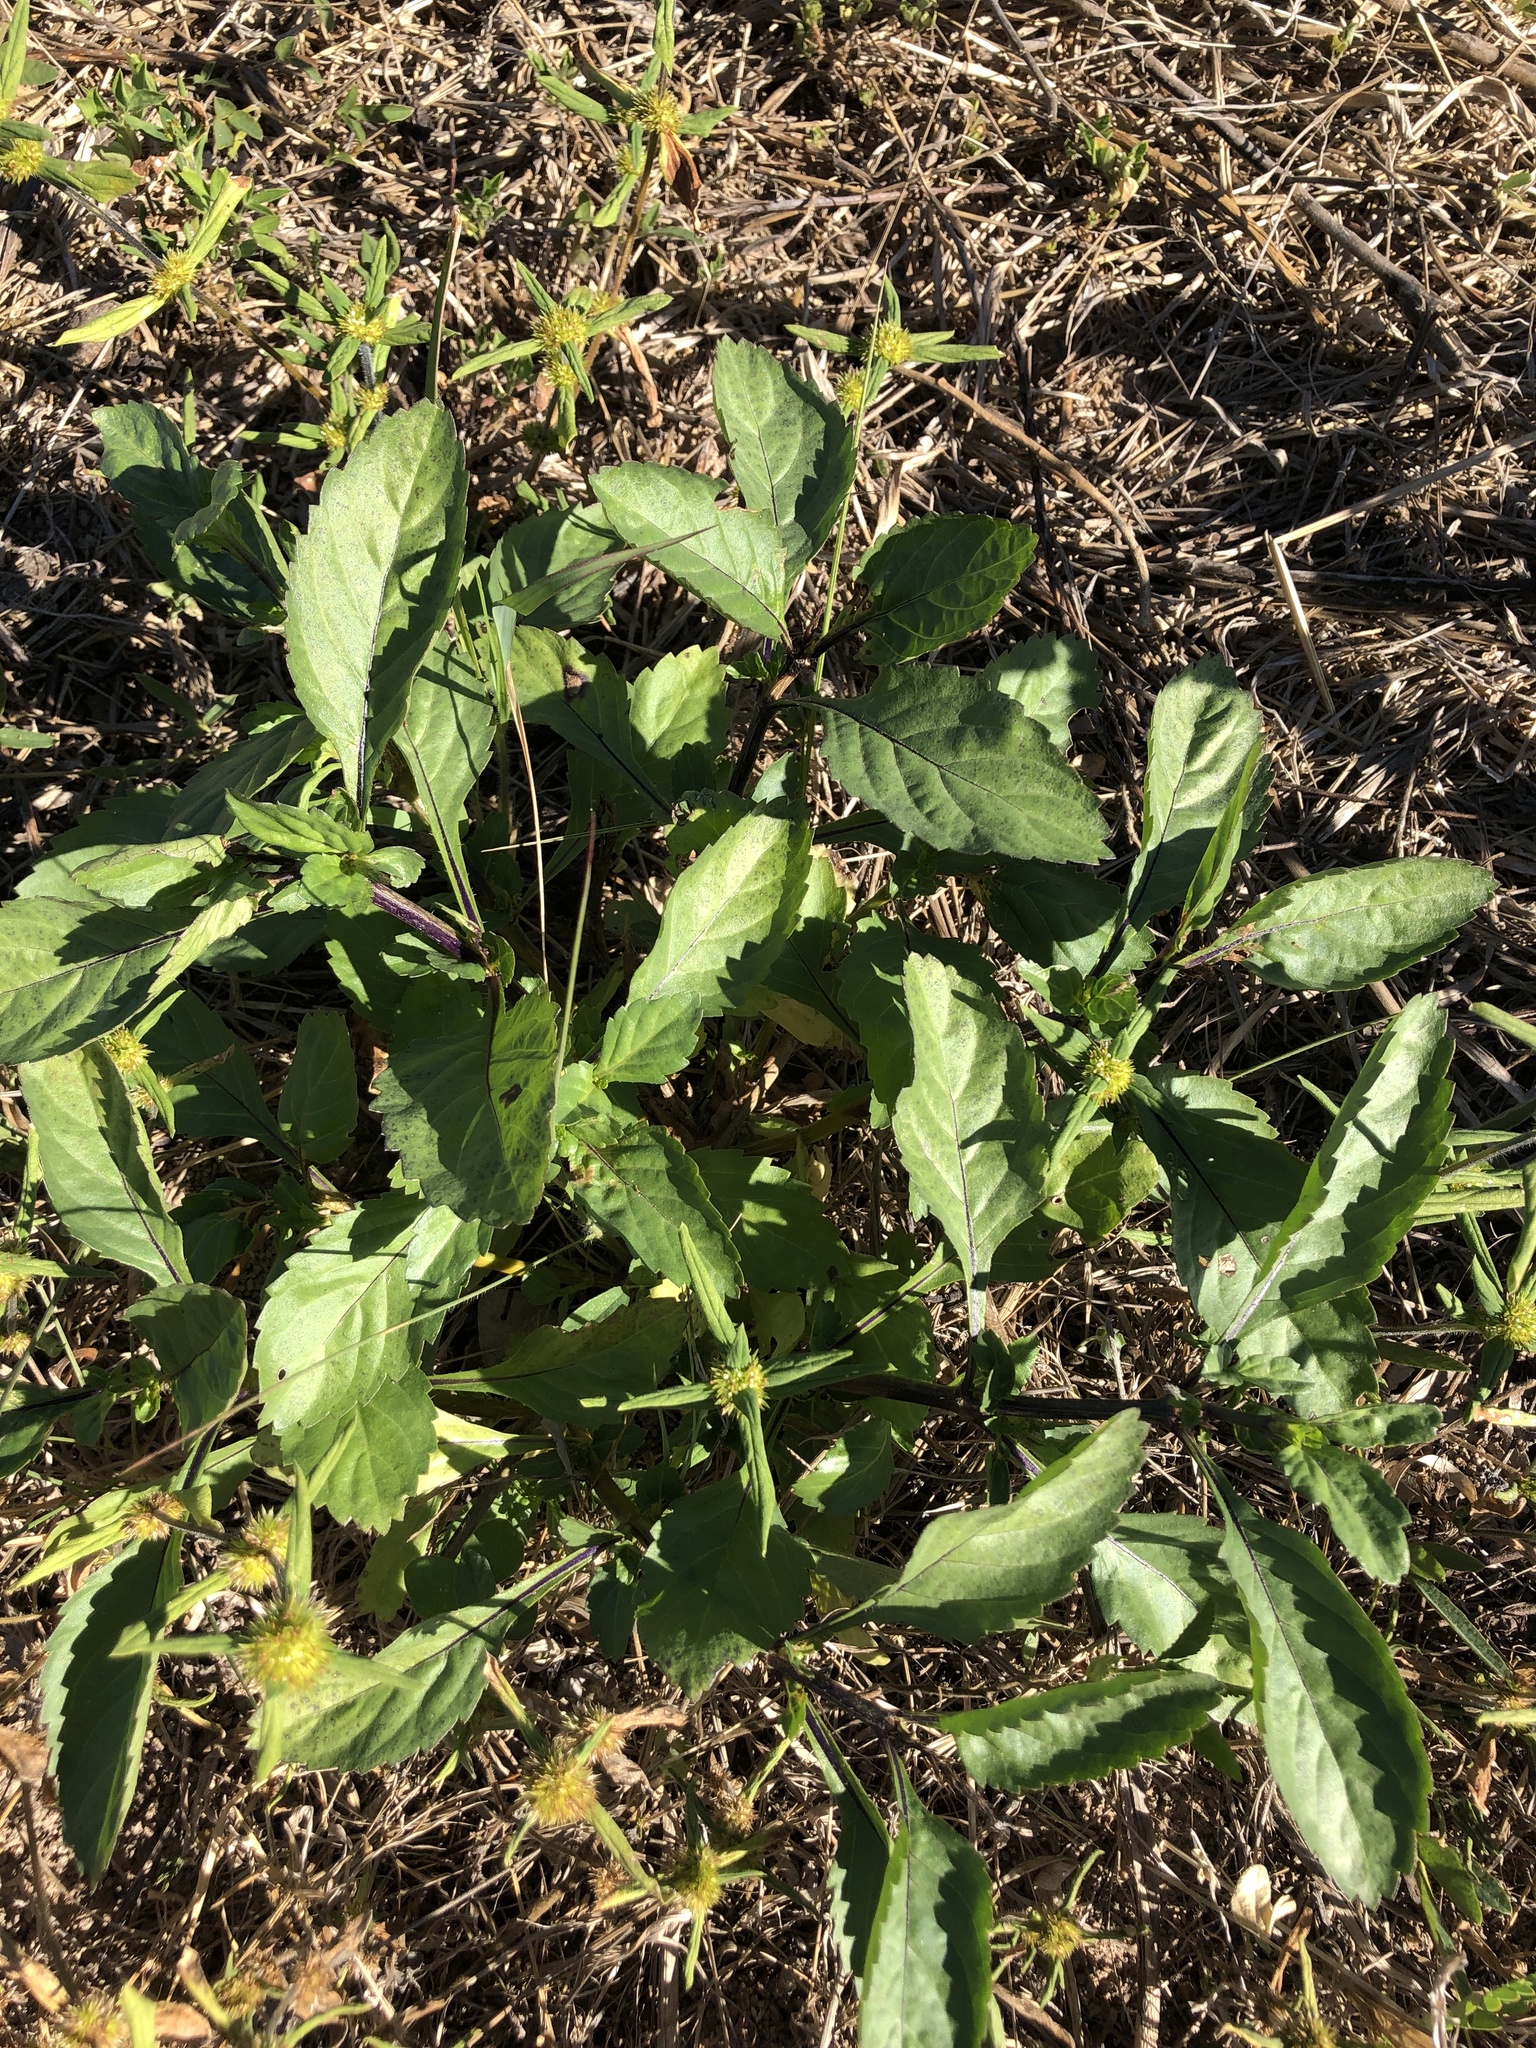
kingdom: Plantae
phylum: Tracheophyta
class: Magnoliopsida
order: Lamiales
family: Verbenaceae
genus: Stachytarpheta
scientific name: Stachytarpheta jamaicensis
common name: Light-blue snakeweed
